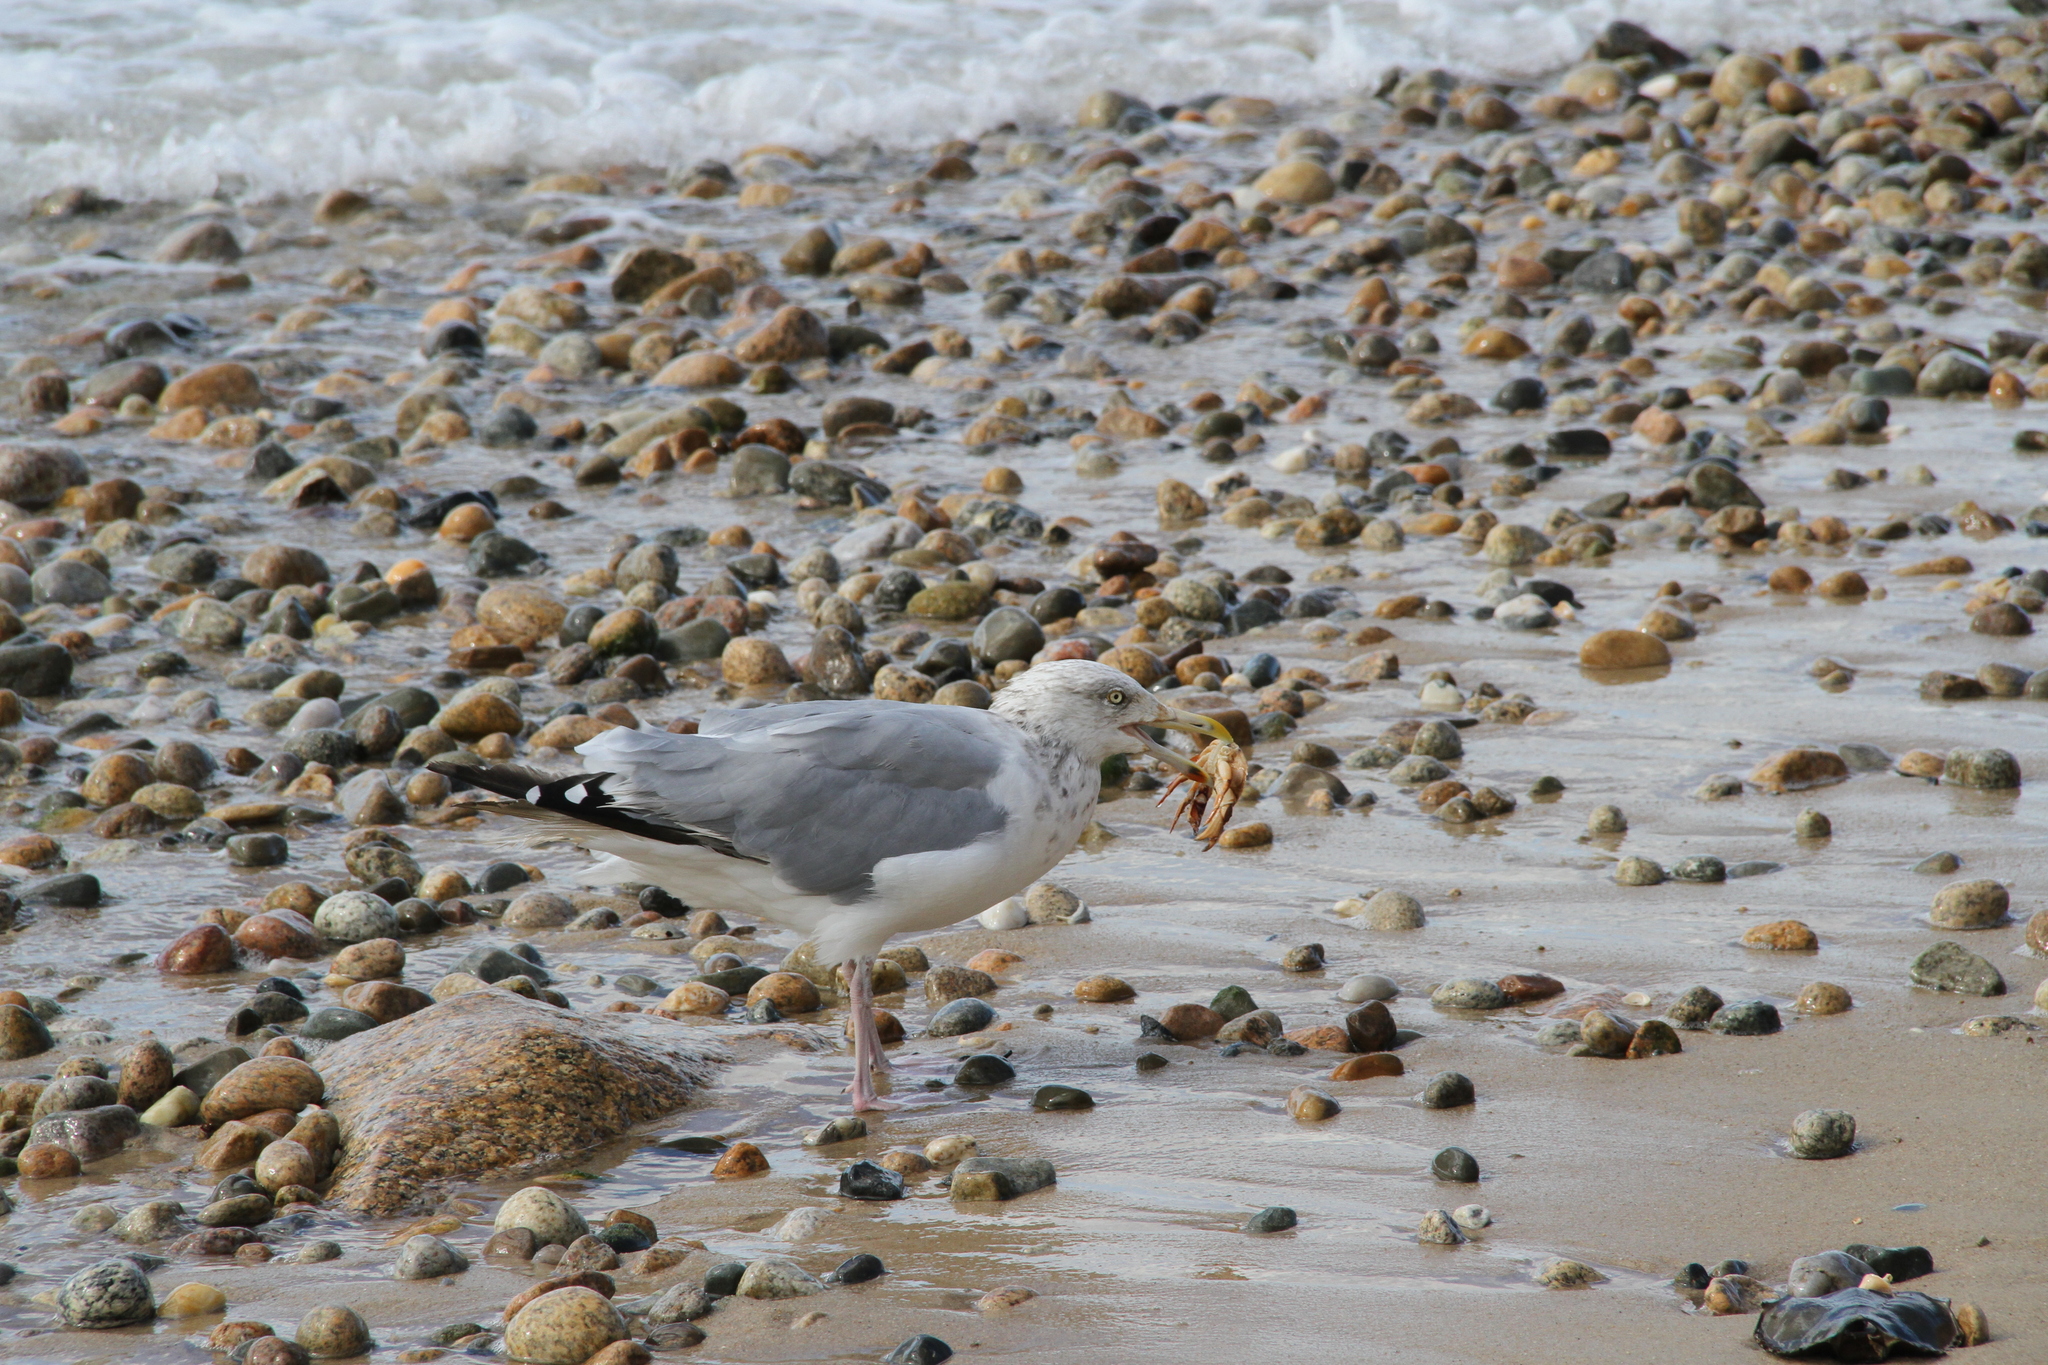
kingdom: Animalia
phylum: Chordata
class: Aves
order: Charadriiformes
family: Laridae
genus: Larus
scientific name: Larus argentatus
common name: Herring gull
